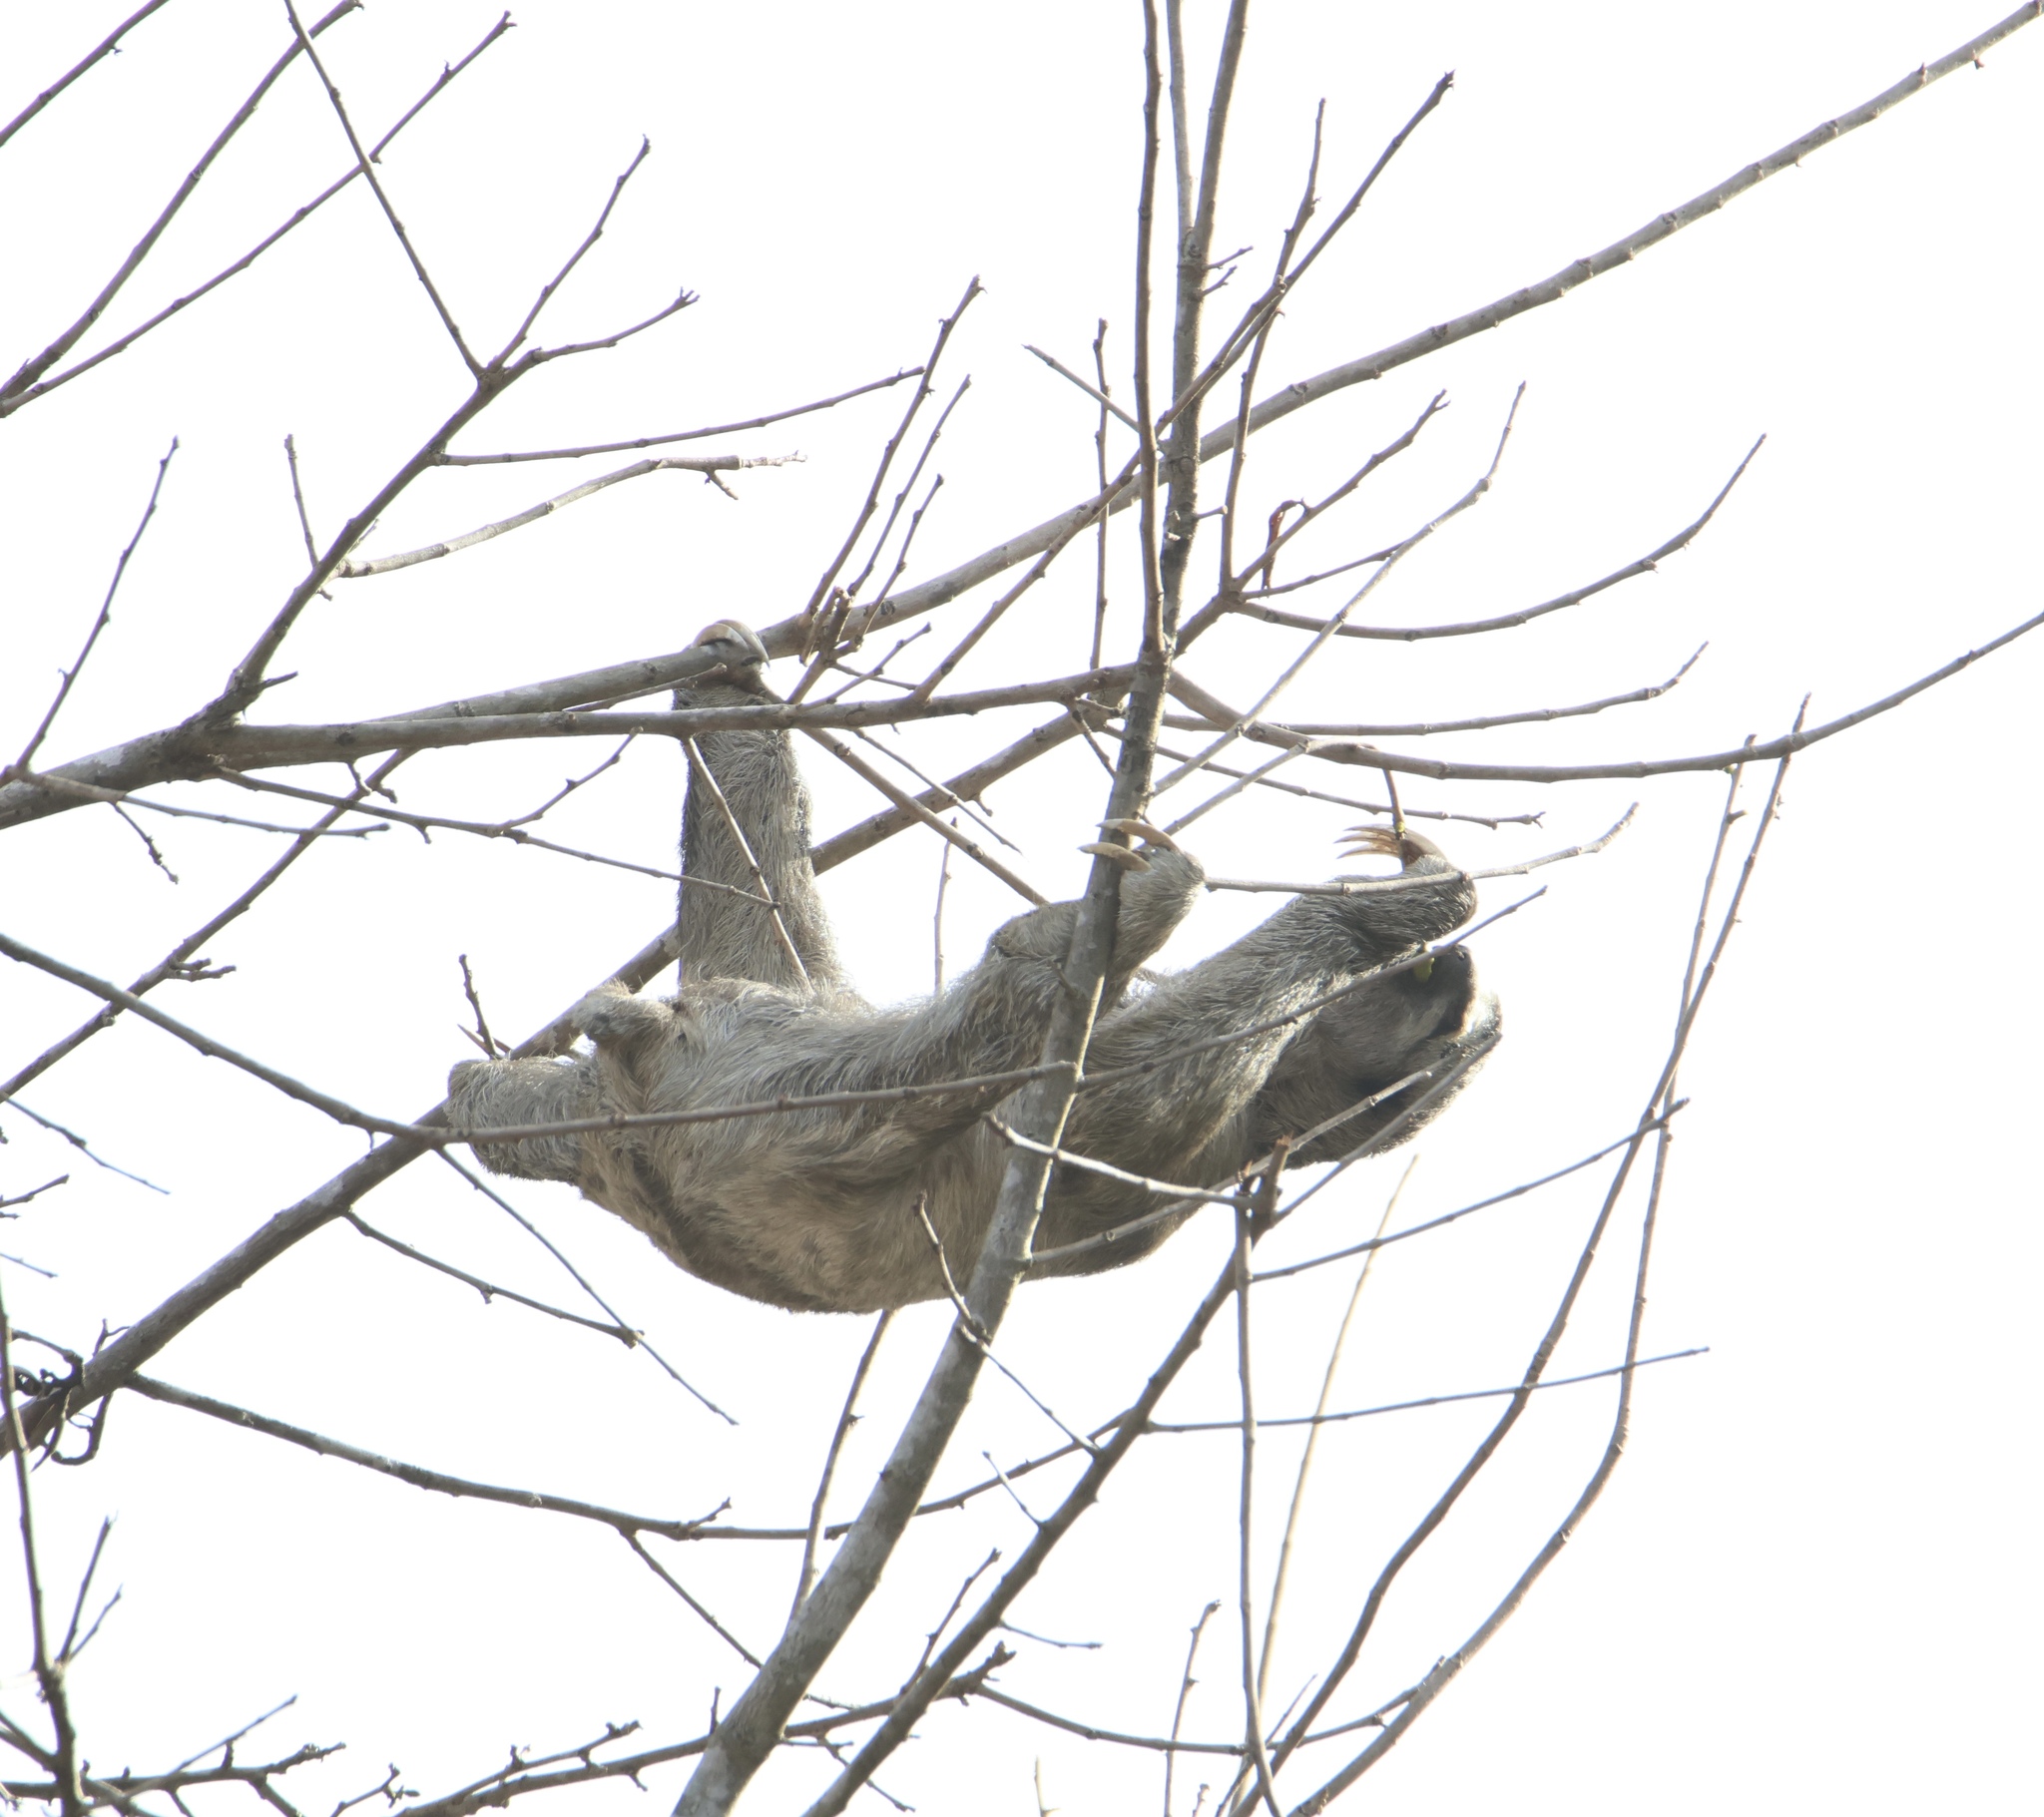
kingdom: Animalia
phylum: Chordata
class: Mammalia
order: Pilosa
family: Bradypodidae
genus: Bradypus
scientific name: Bradypus variegatus
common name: Brown-throated three-toed sloth
